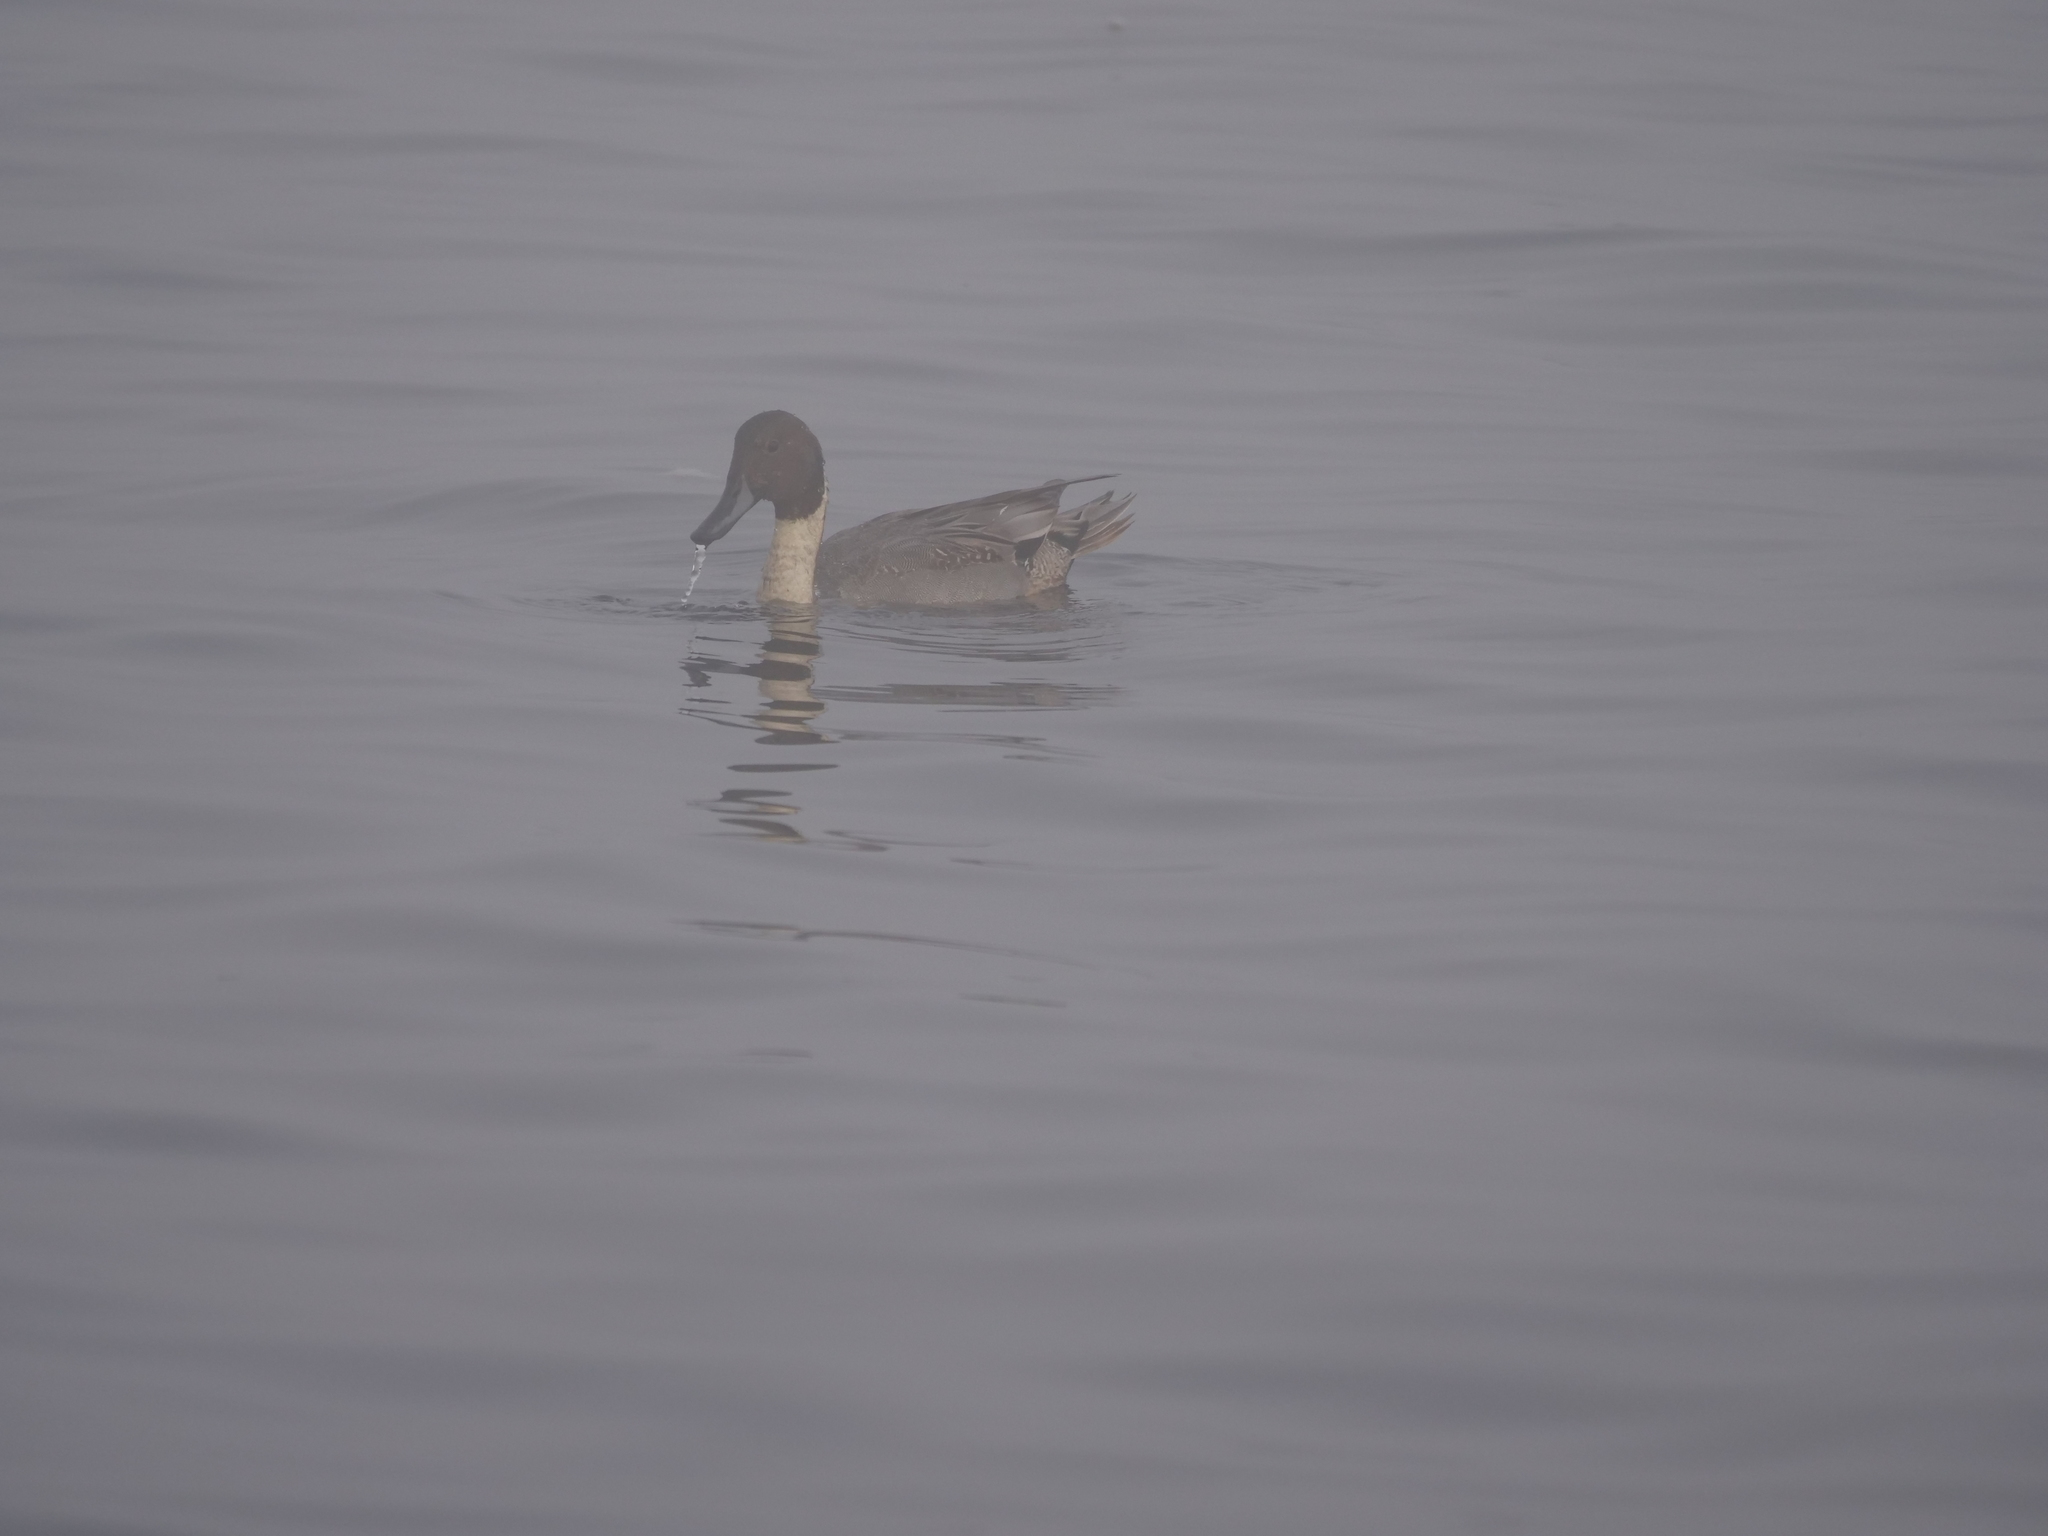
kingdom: Animalia
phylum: Chordata
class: Aves
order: Anseriformes
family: Anatidae
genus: Anas
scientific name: Anas acuta
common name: Northern pintail
